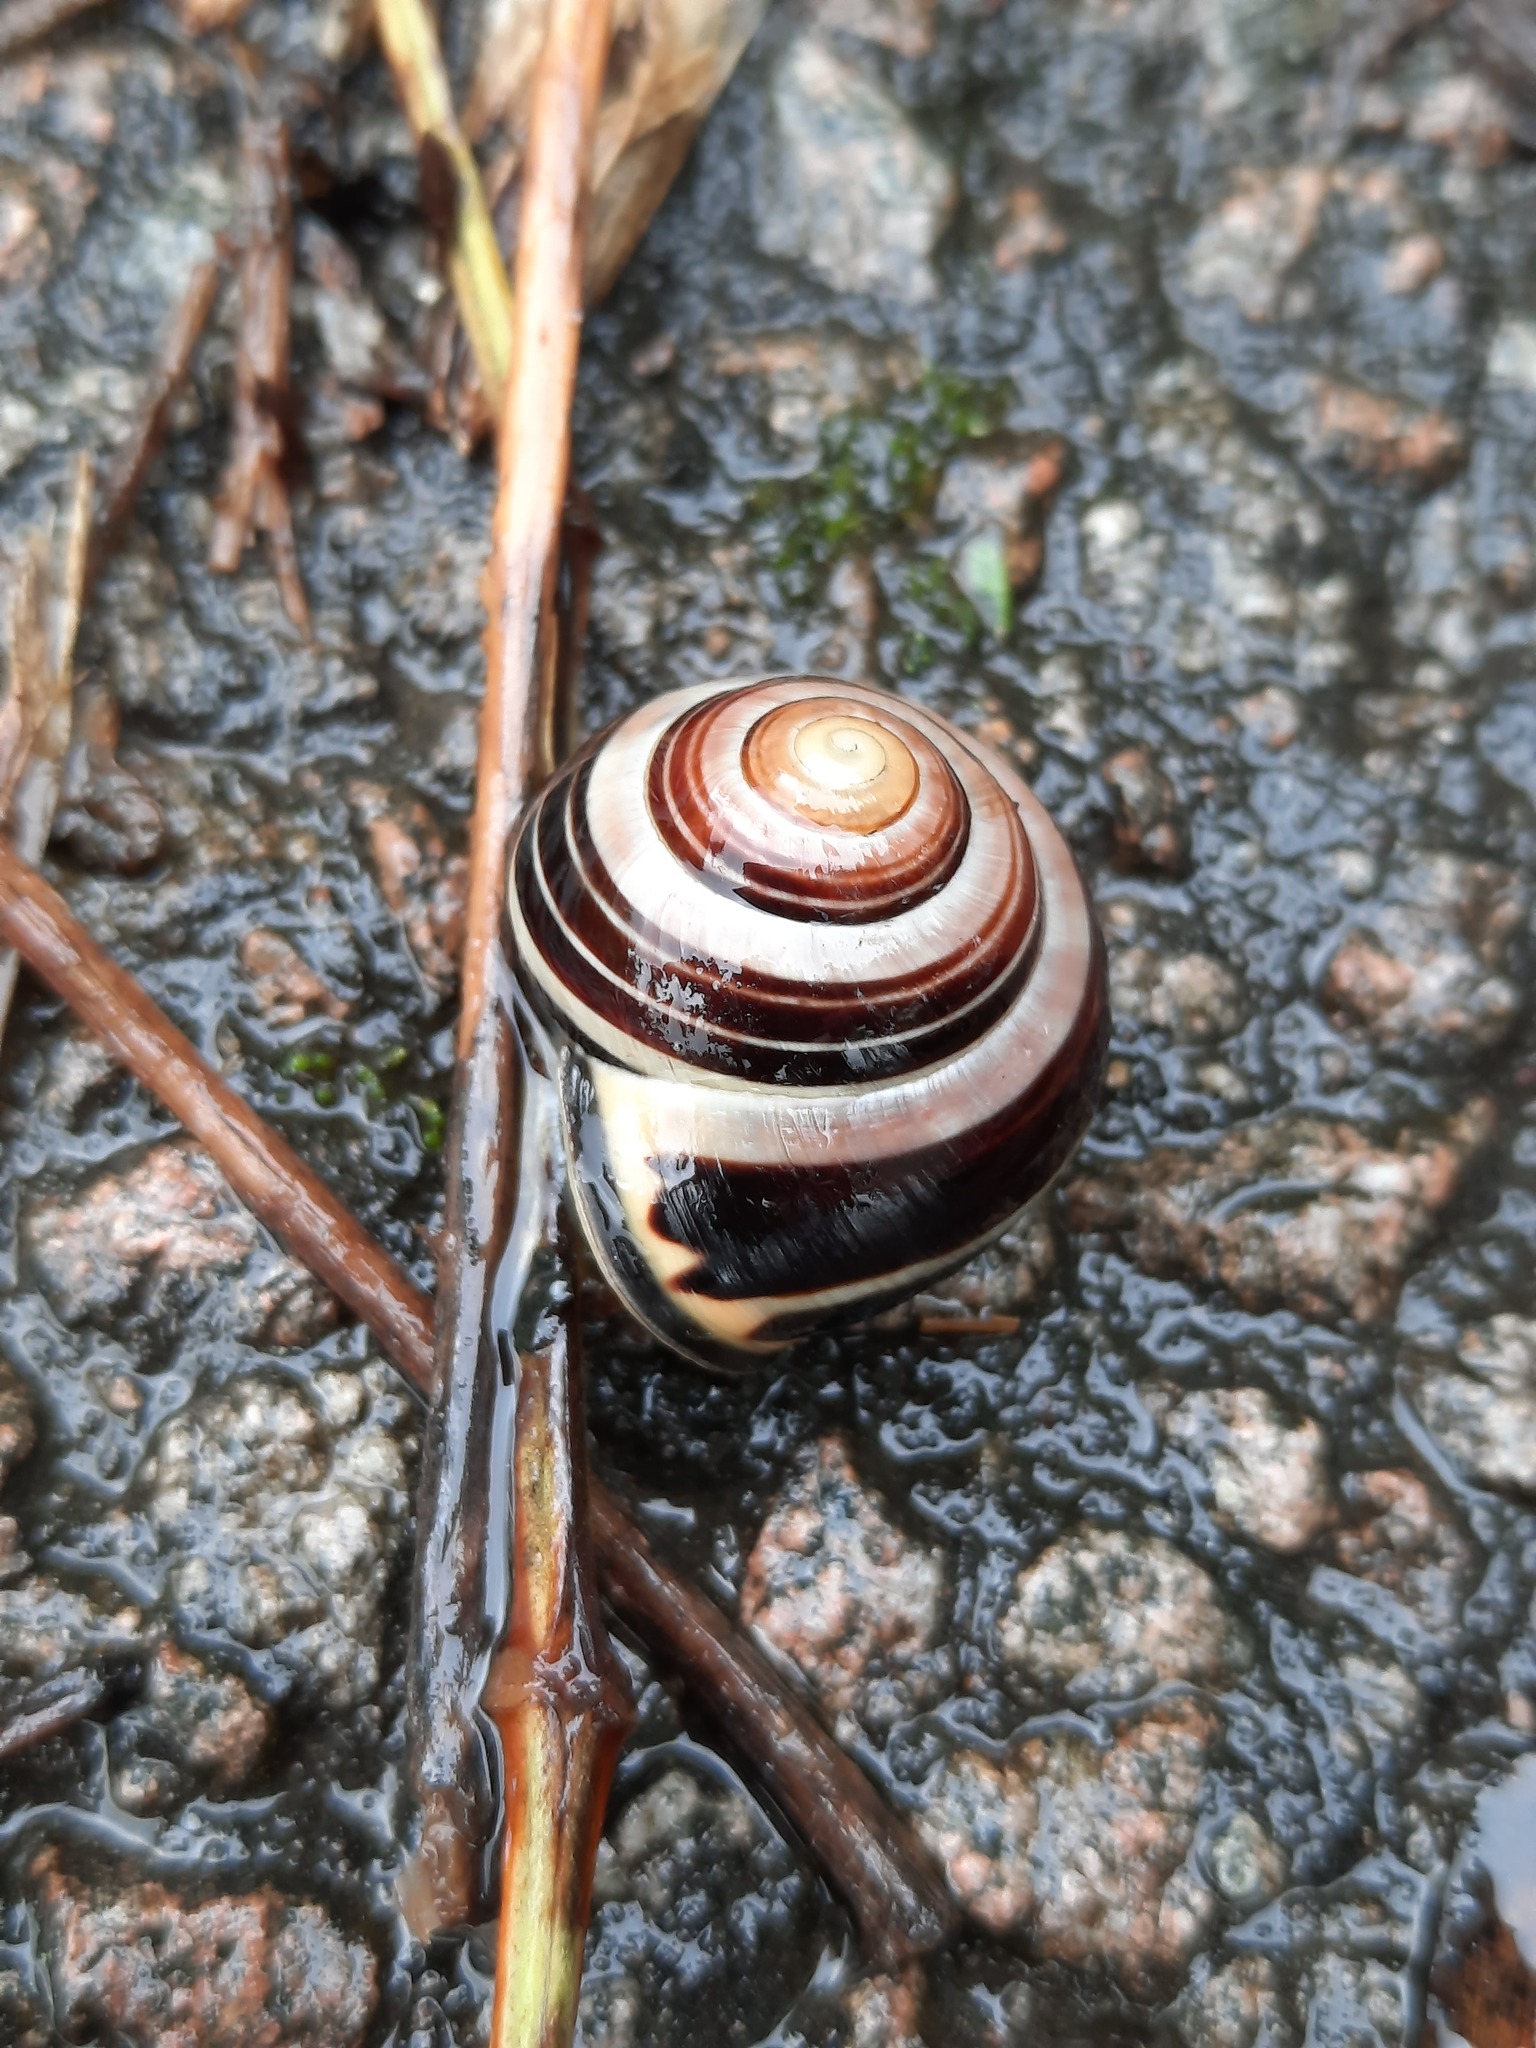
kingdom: Animalia
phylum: Mollusca
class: Gastropoda
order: Stylommatophora
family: Helicidae
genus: Cepaea
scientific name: Cepaea nemoralis
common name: Grovesnail
